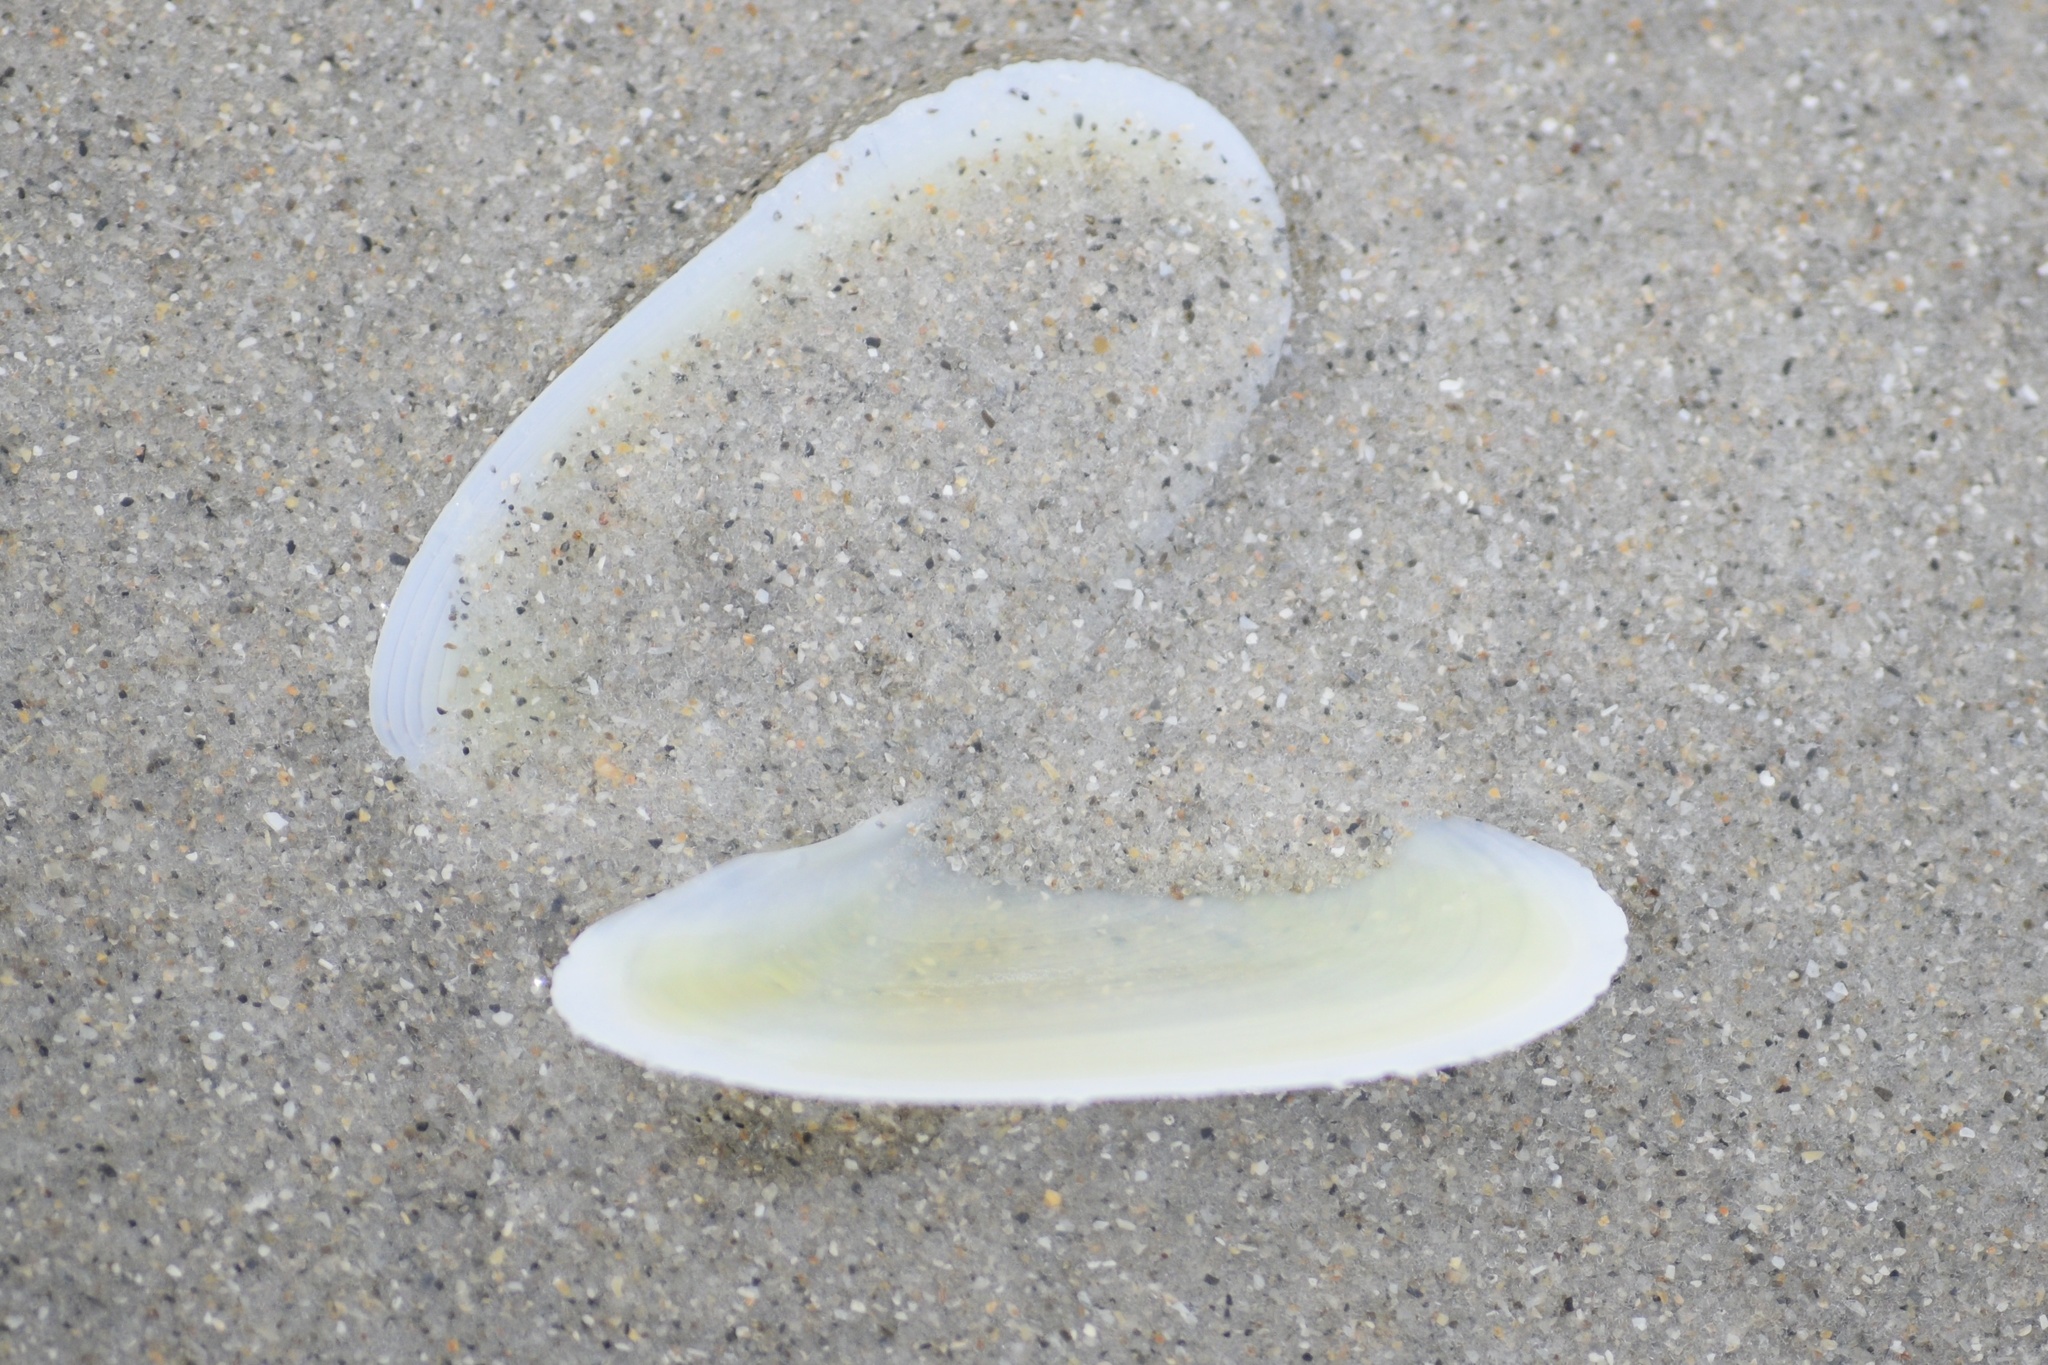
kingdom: Animalia
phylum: Mollusca
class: Bivalvia
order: Cardiida
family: Tellinidae
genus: Eurytellina
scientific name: Eurytellina alternata
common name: Alternate tellin
